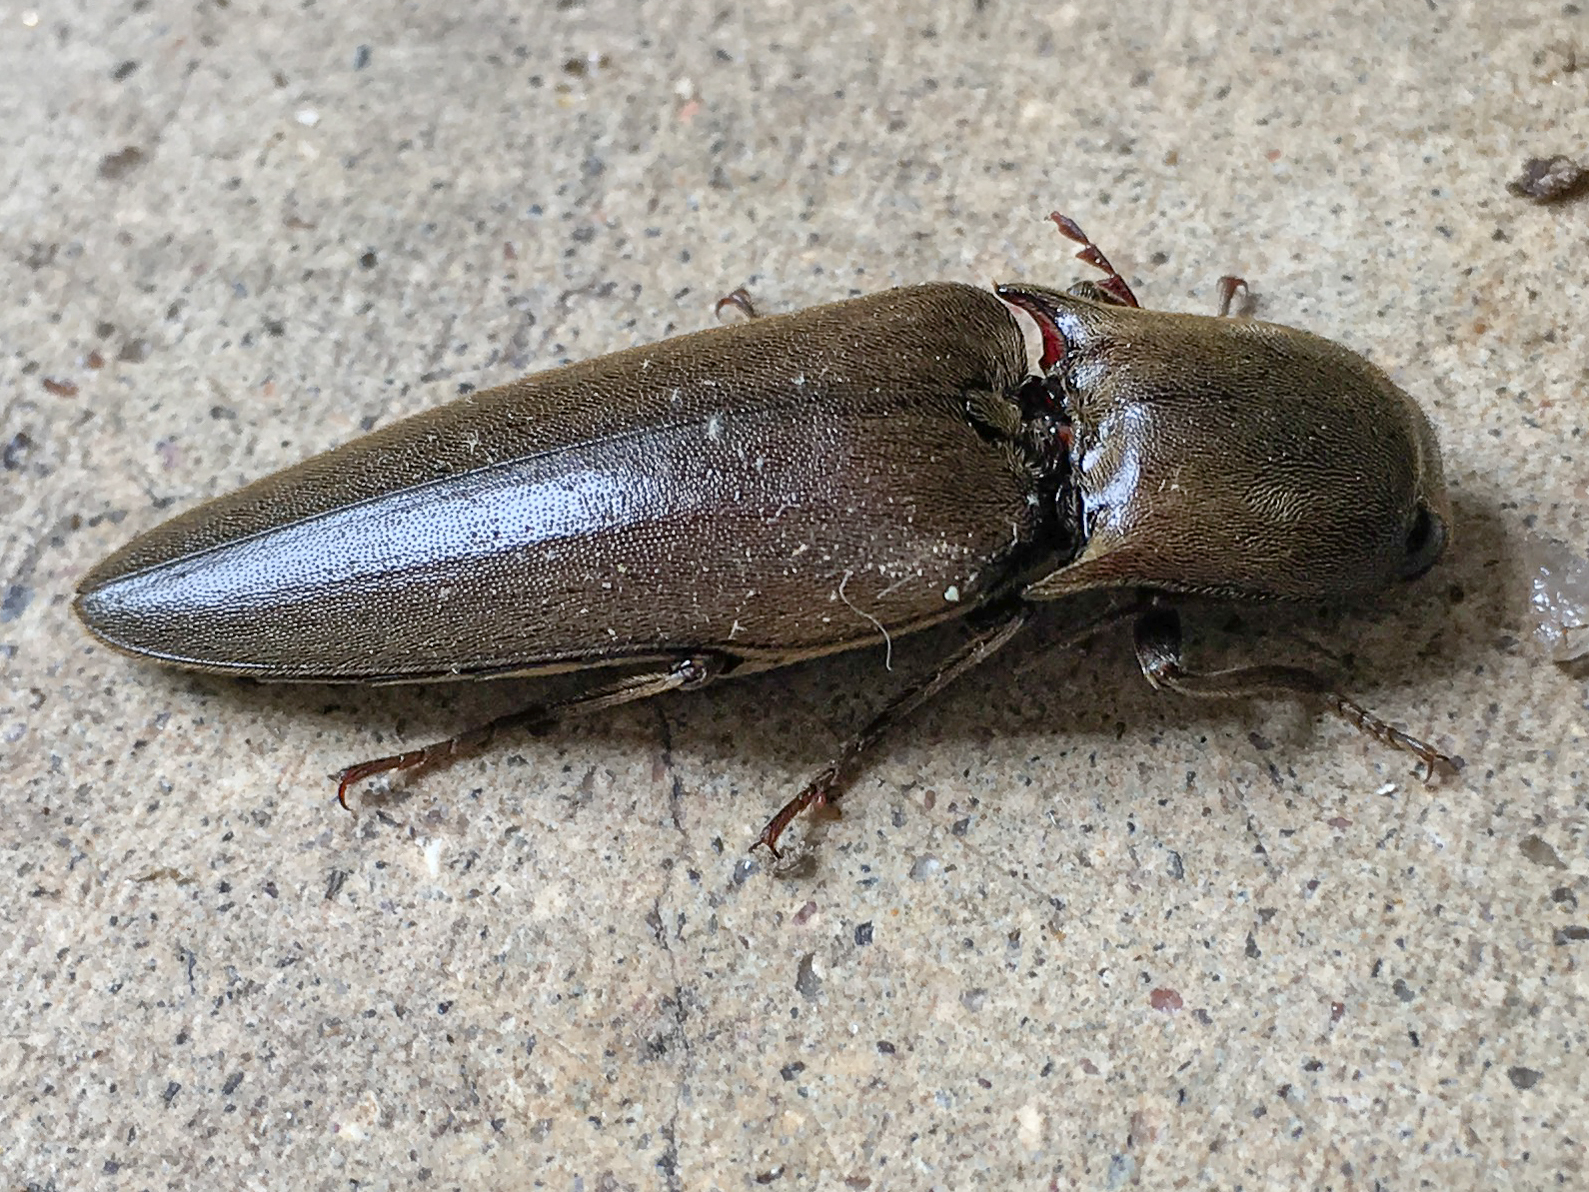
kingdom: Animalia
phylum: Arthropoda
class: Insecta
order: Coleoptera
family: Elateridae
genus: Orthostethus
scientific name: Orthostethus infuscatus
